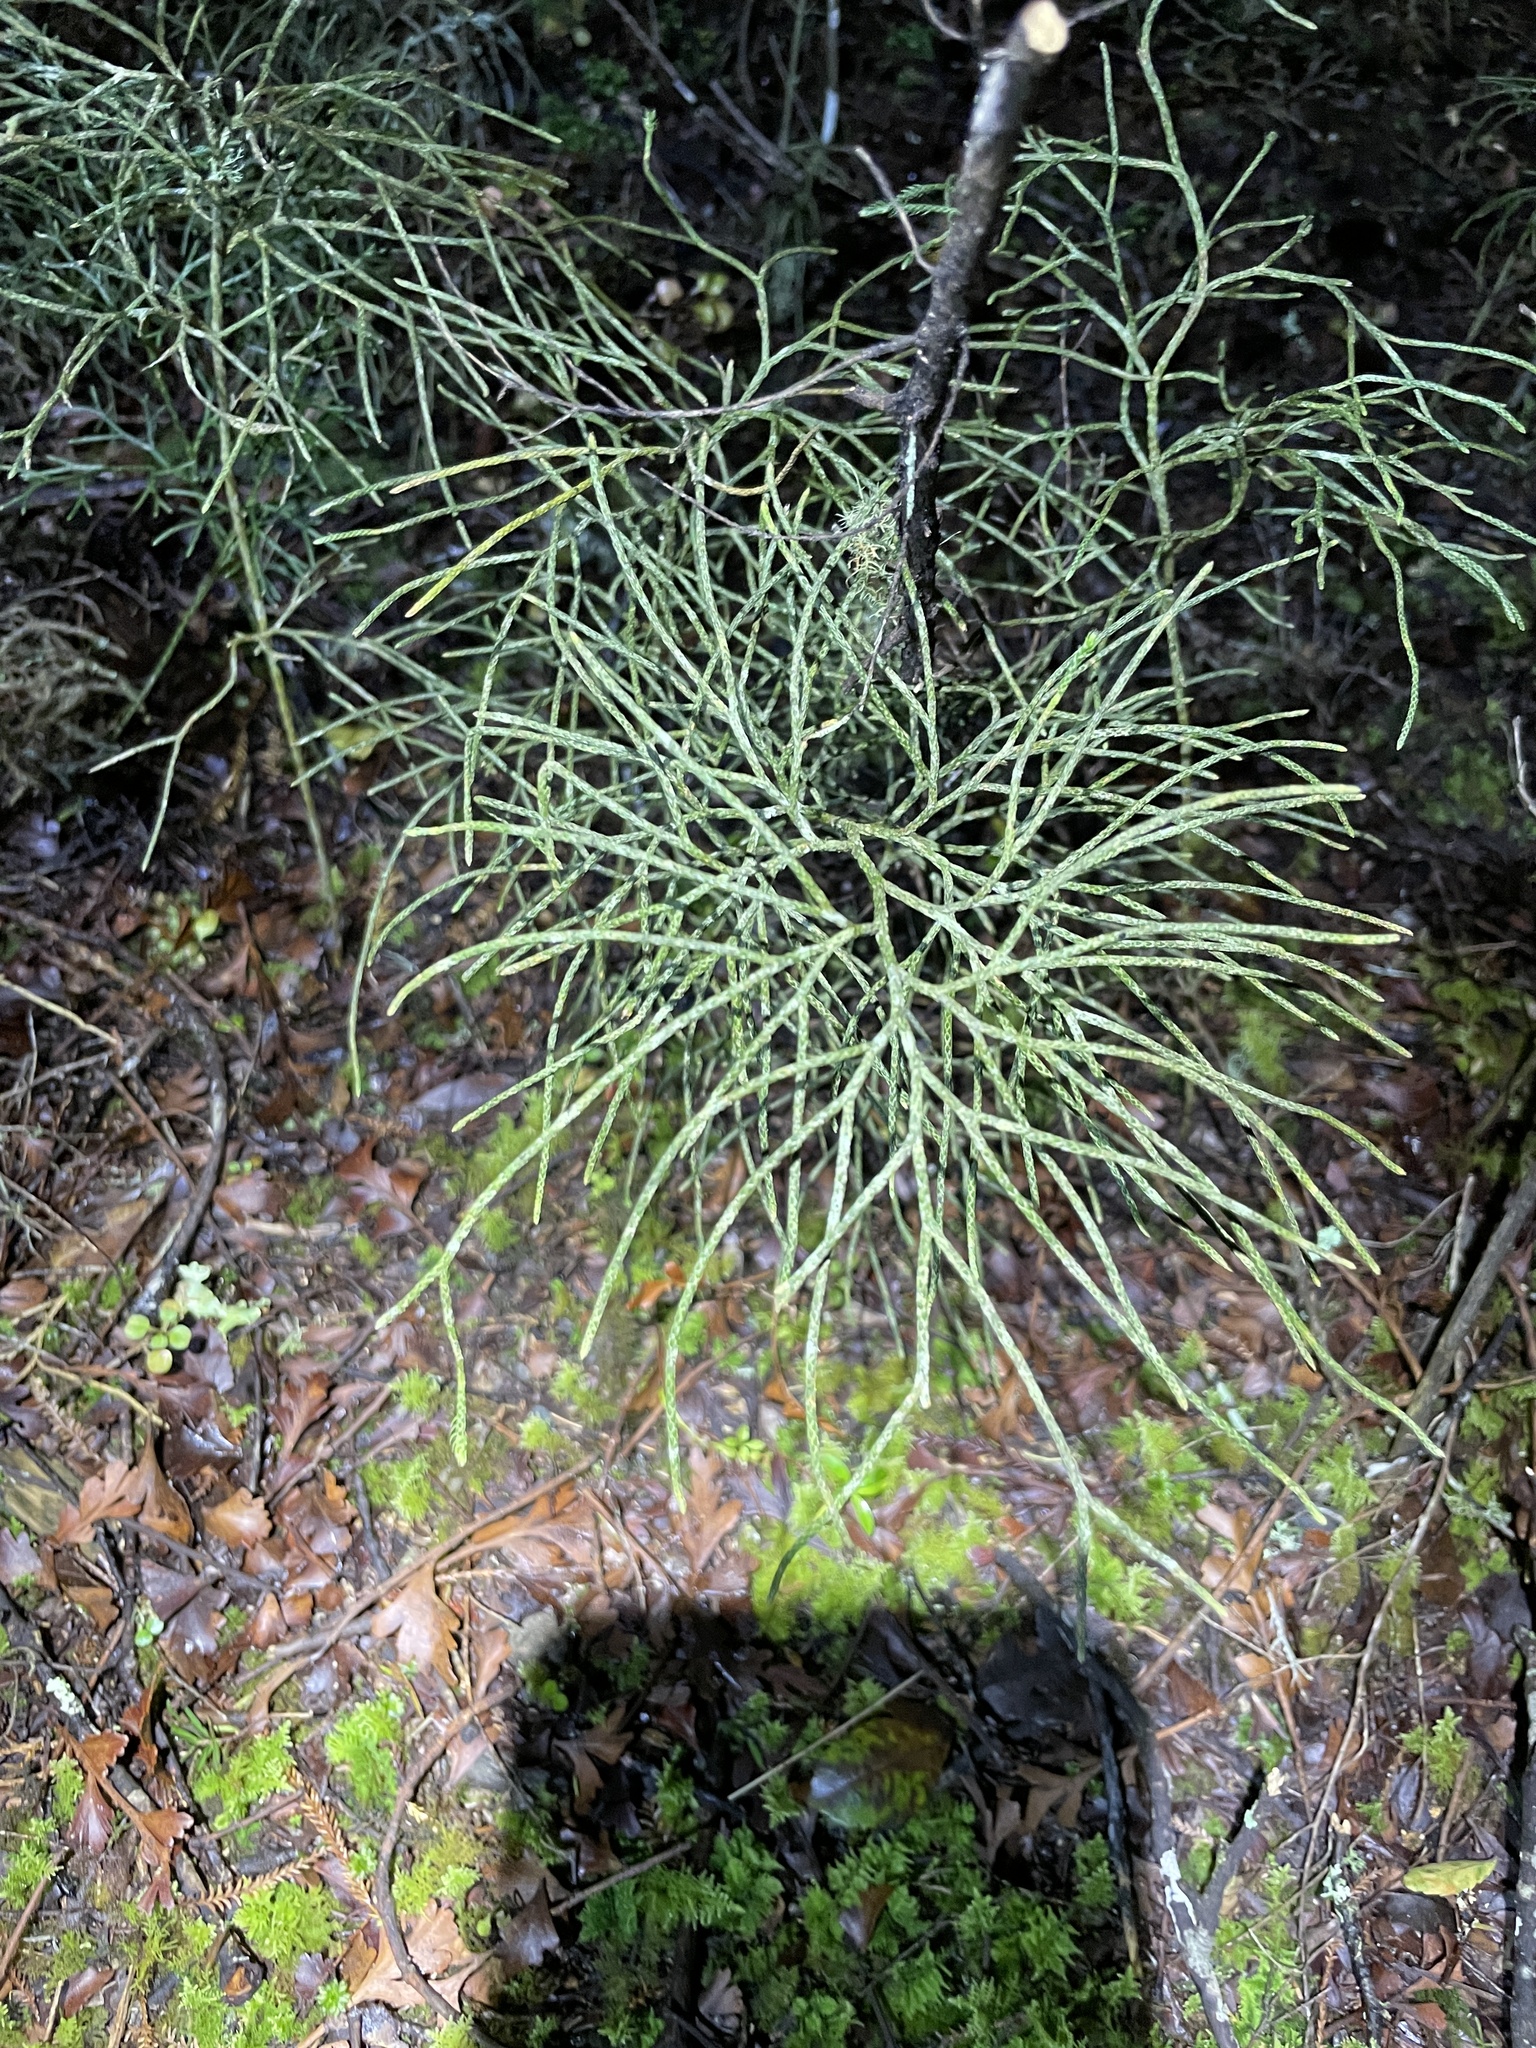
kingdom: Plantae
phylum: Tracheophyta
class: Lycopodiopsida
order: Lycopodiales
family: Lycopodiaceae
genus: Pseudolycopodium
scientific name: Pseudolycopodium densum
